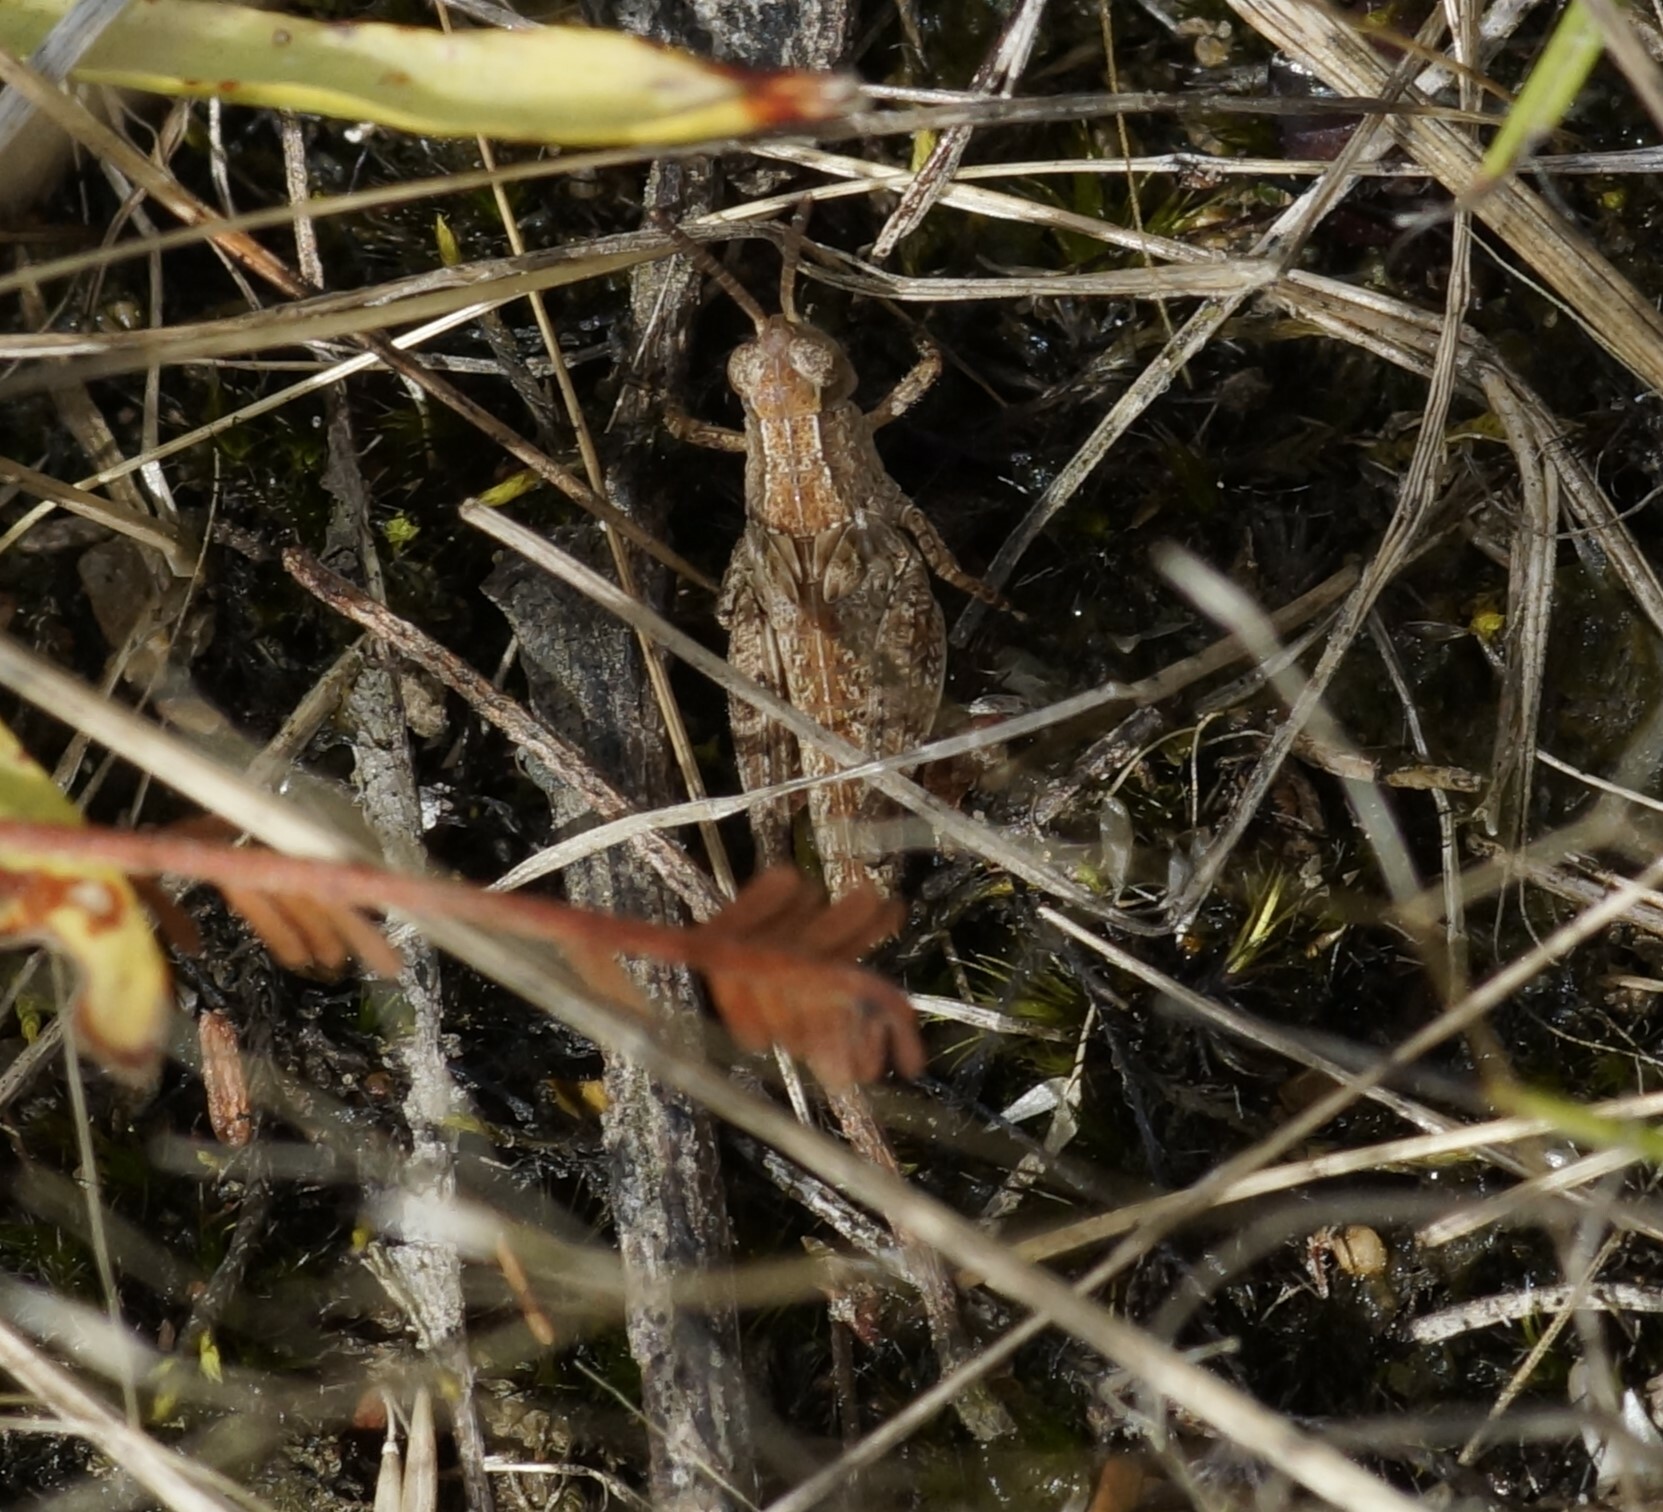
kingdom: Animalia
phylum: Arthropoda
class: Insecta
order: Orthoptera
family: Acrididae
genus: Phaulacridium
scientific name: Phaulacridium vittatum
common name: Wingless grasshopper
